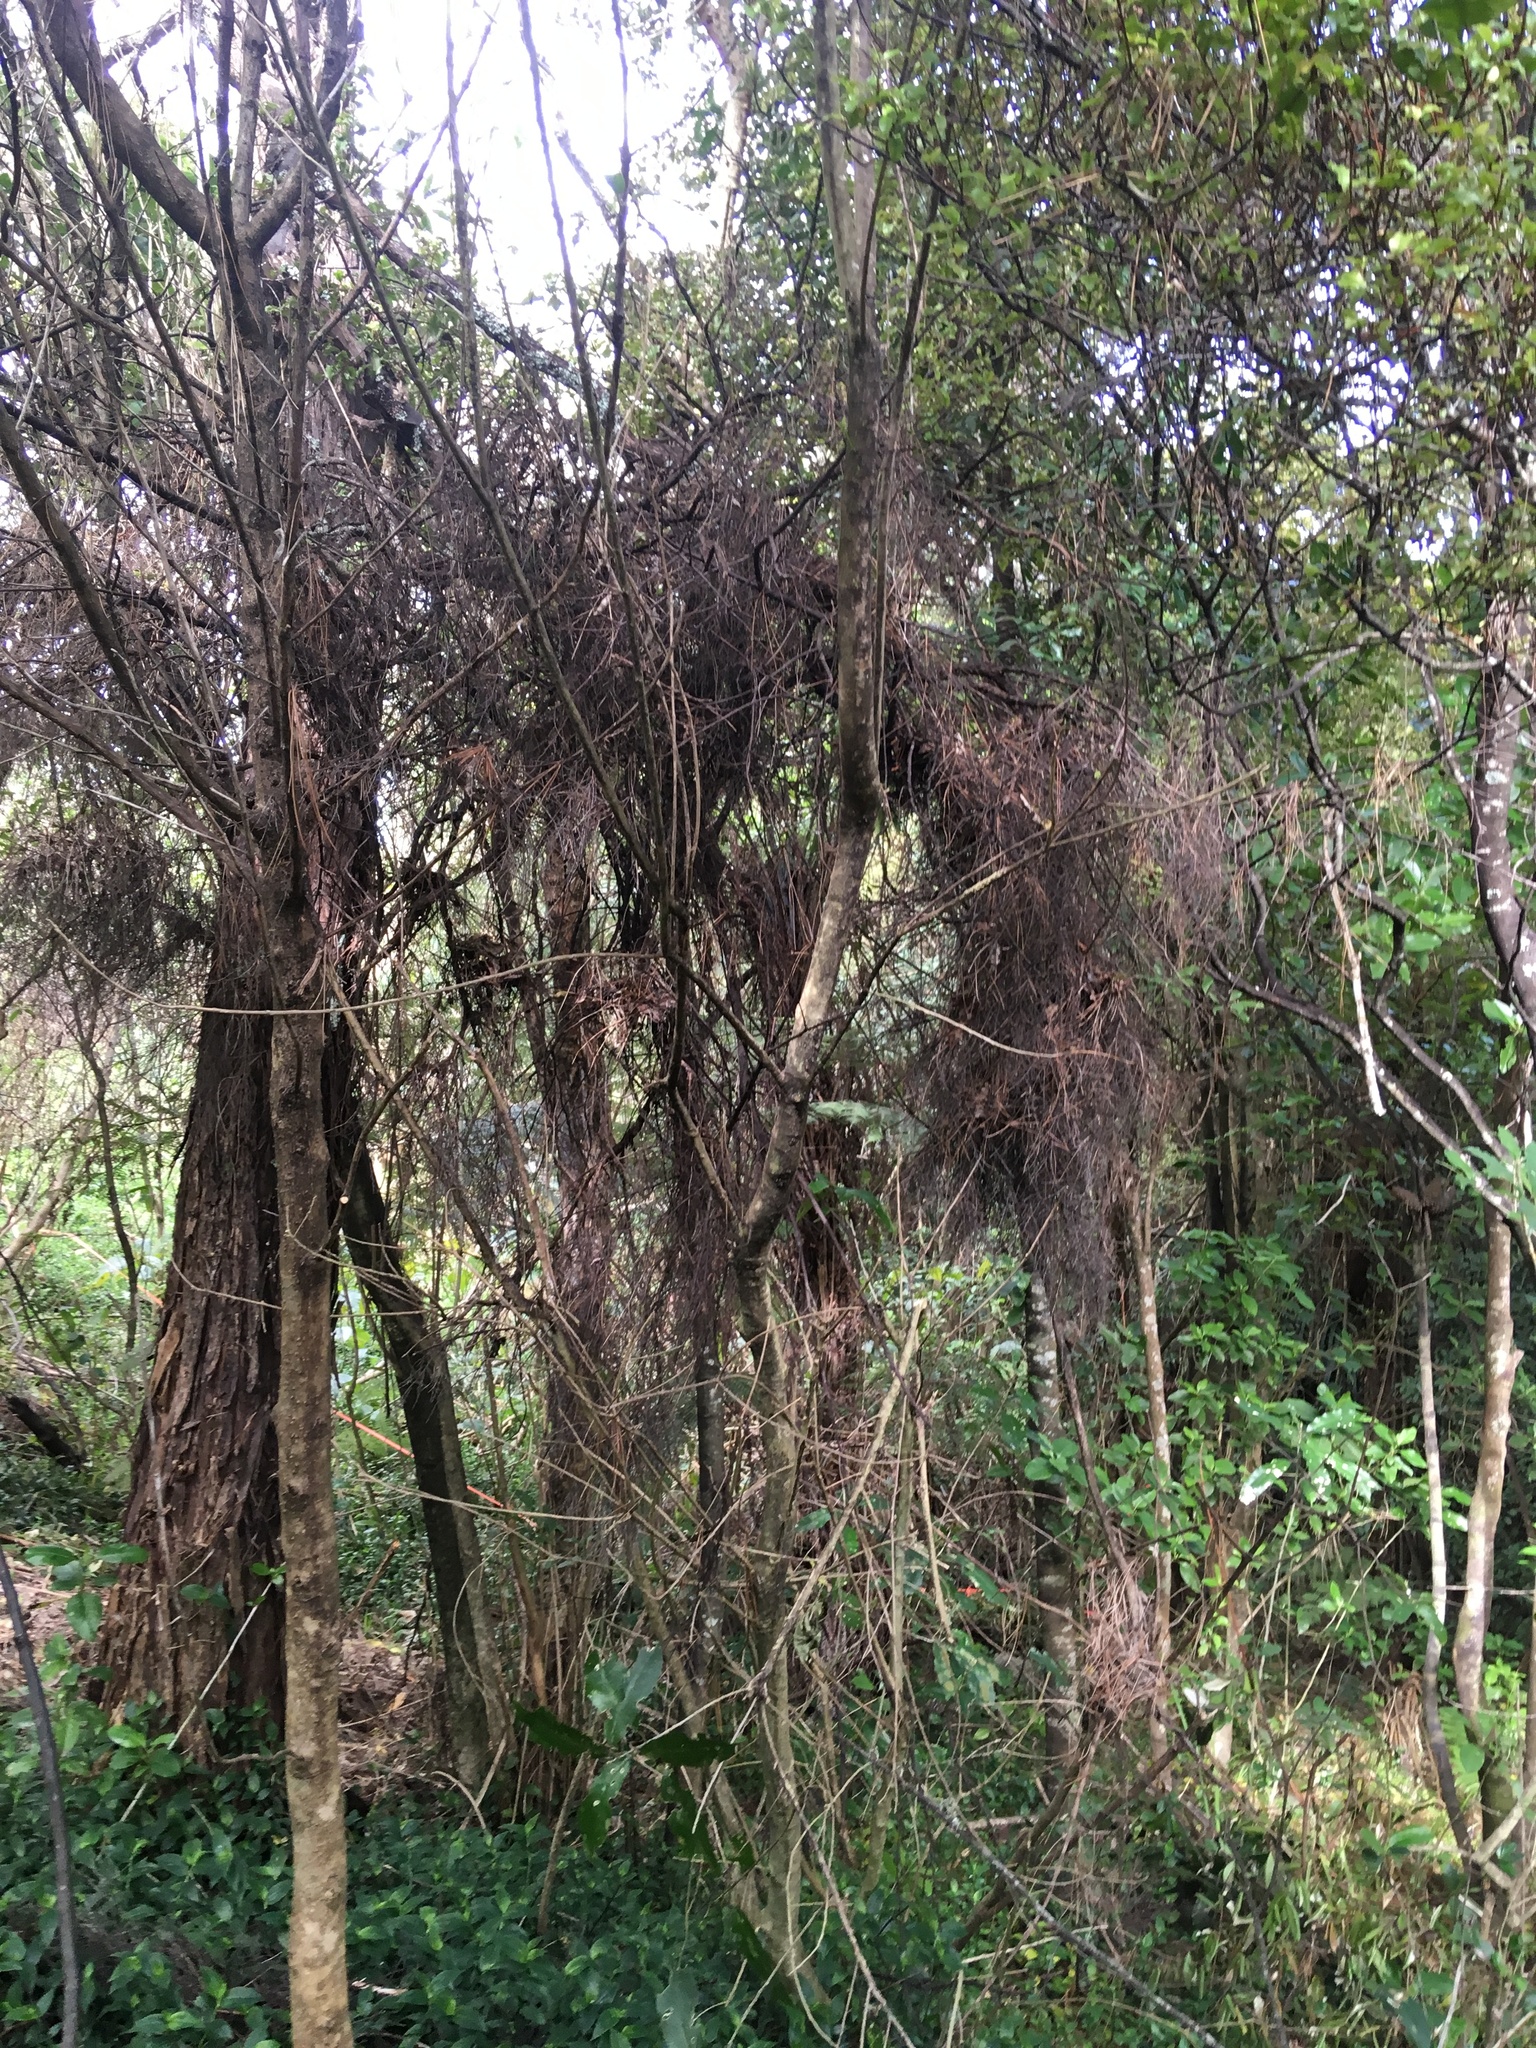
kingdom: Plantae
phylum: Tracheophyta
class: Liliopsida
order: Commelinales
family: Commelinaceae
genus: Tradescantia
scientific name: Tradescantia fluminensis
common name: Wandering-jew
